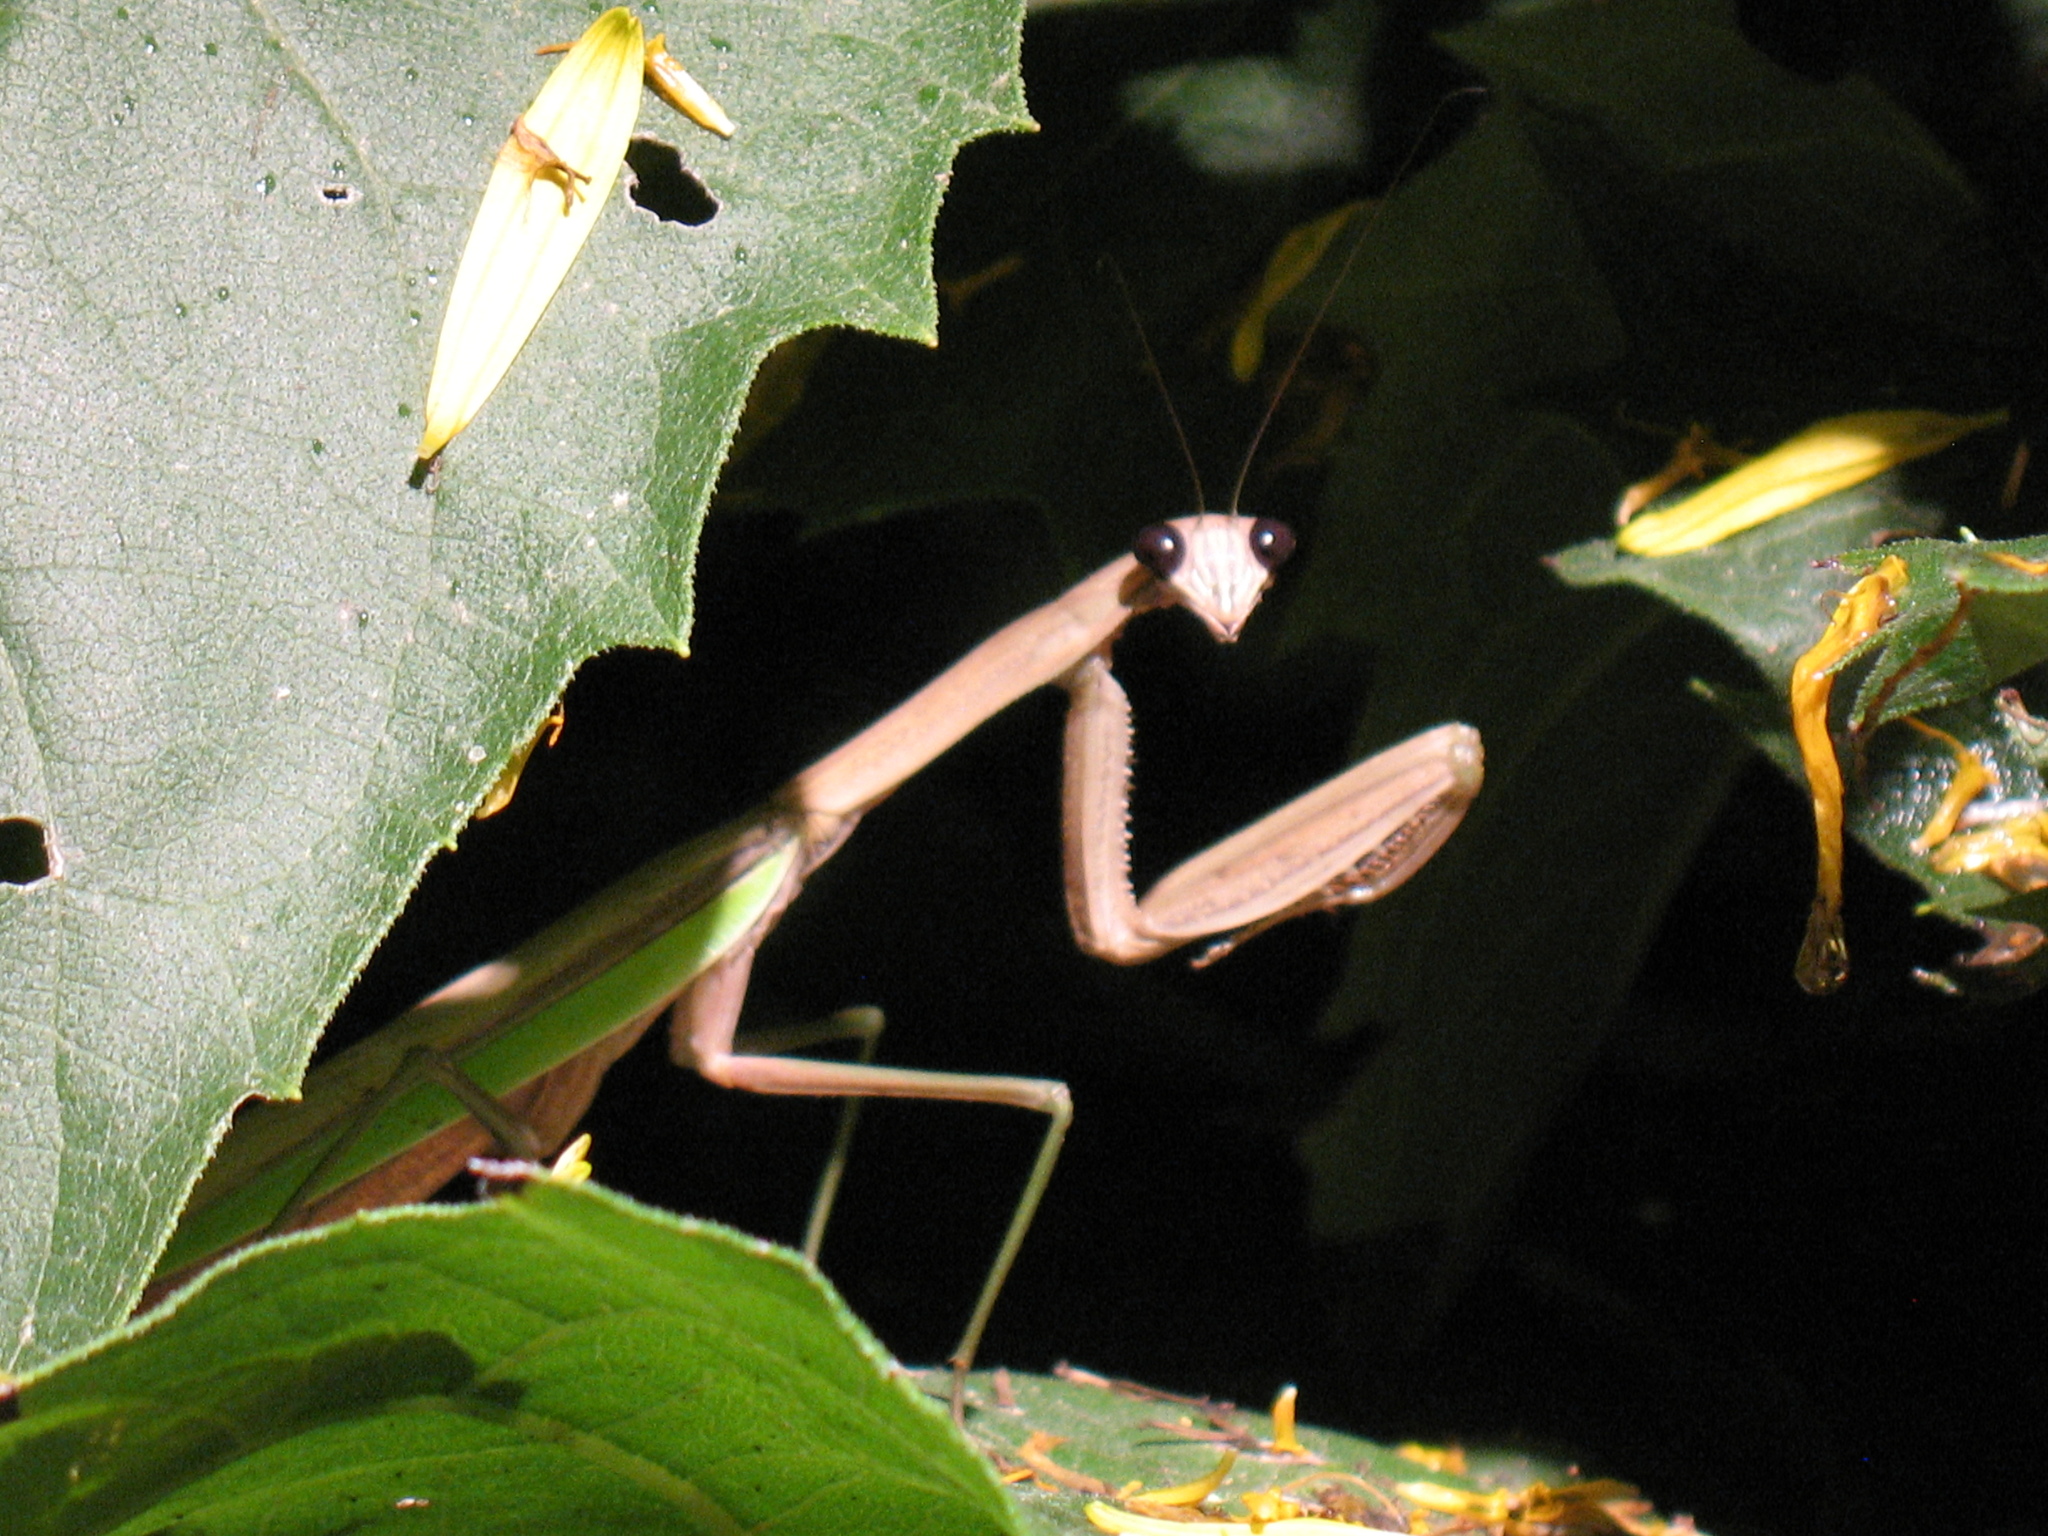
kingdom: Animalia
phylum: Arthropoda
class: Insecta
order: Mantodea
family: Mantidae
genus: Tenodera
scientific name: Tenodera sinensis
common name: Chinese mantis
